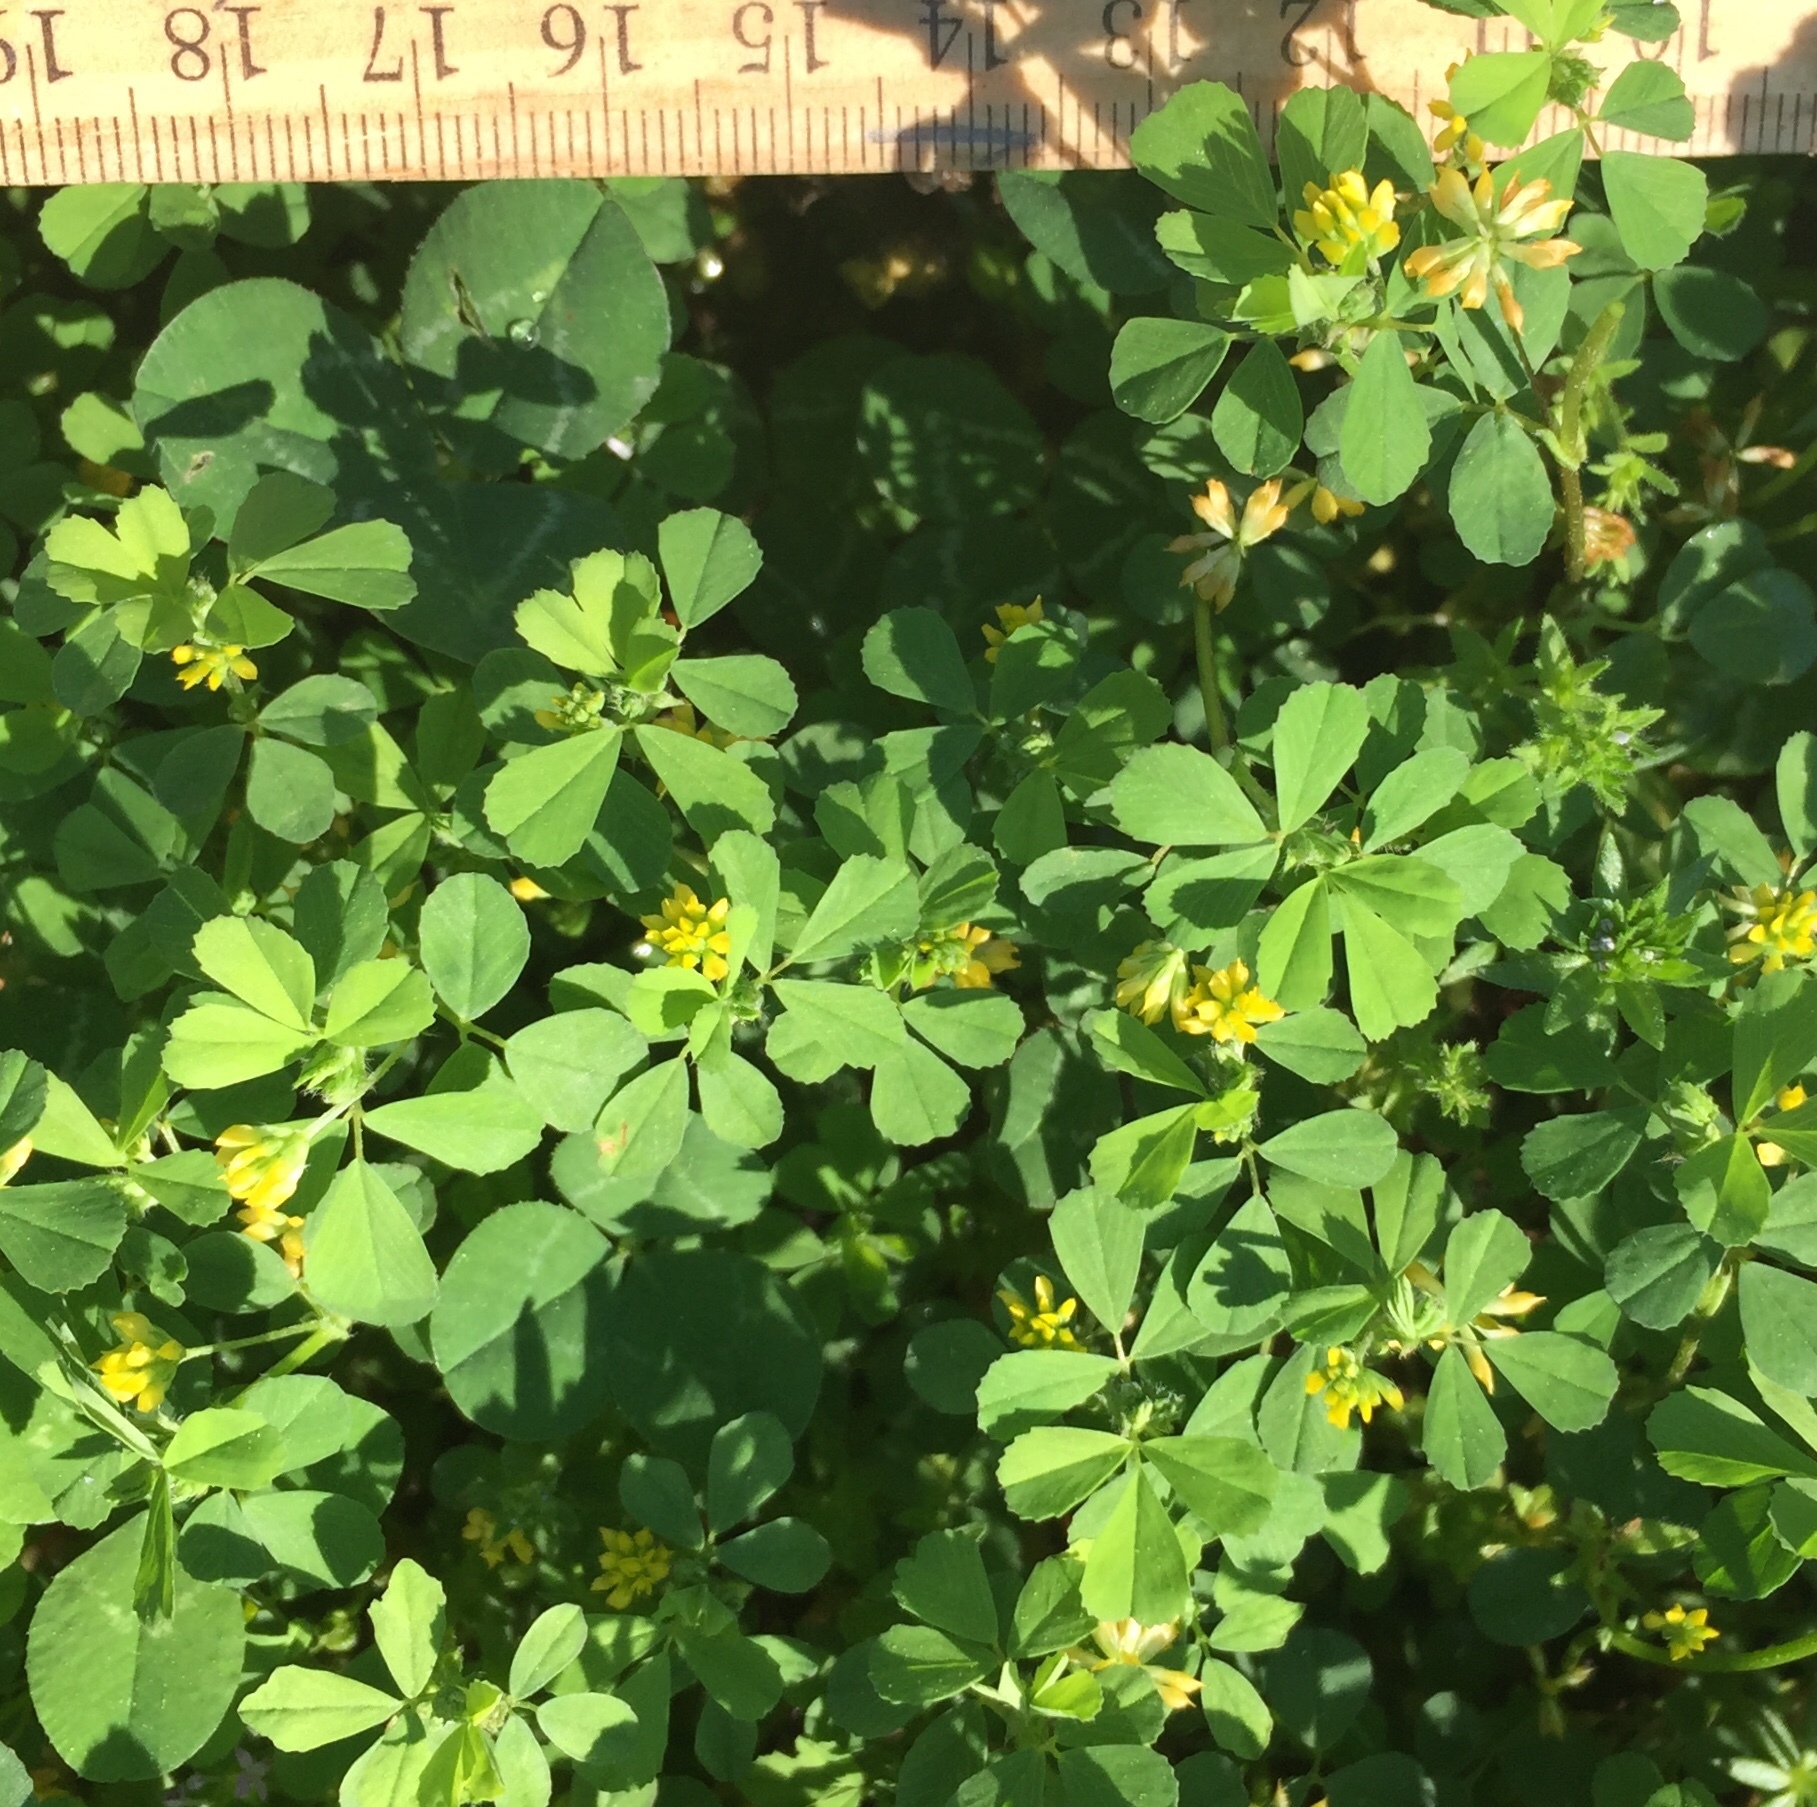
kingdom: Plantae
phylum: Tracheophyta
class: Magnoliopsida
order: Fabales
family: Fabaceae
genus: Trifolium
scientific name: Trifolium dubium
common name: Suckling clover
